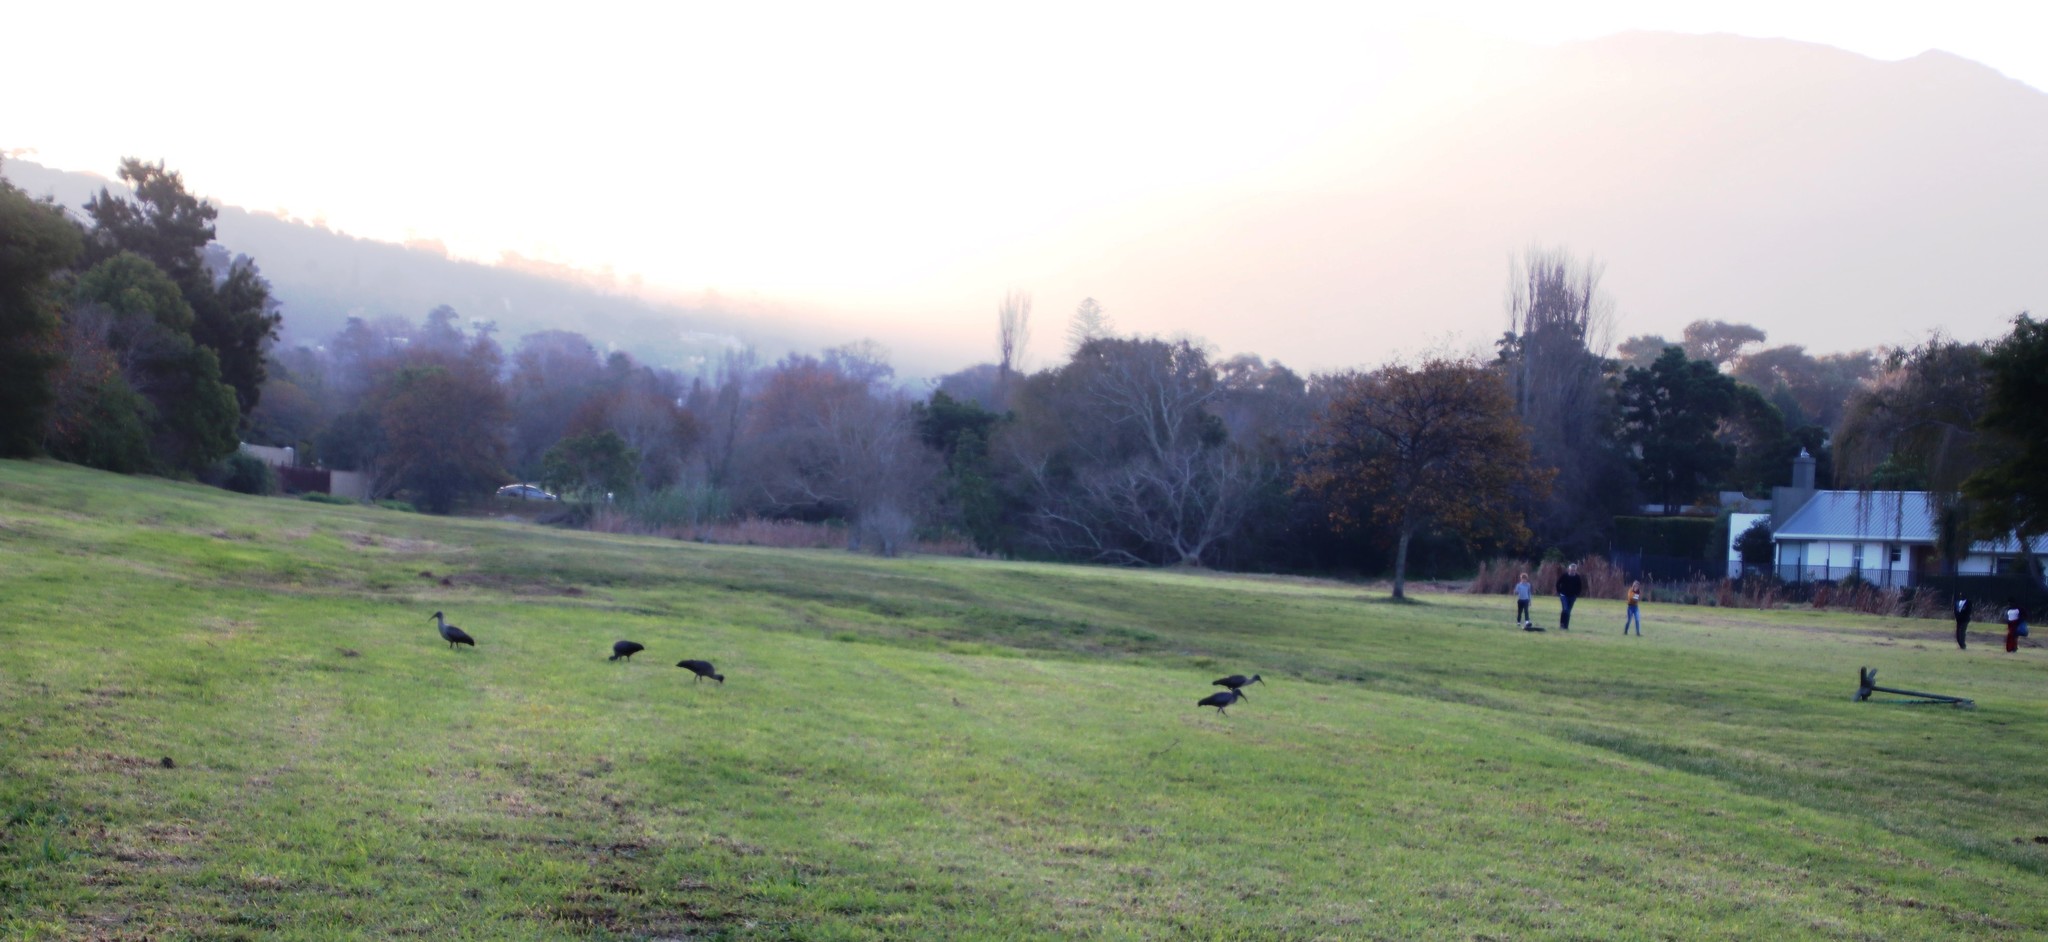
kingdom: Animalia
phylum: Chordata
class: Aves
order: Pelecaniformes
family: Threskiornithidae
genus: Bostrychia
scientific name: Bostrychia hagedash
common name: Hadada ibis
